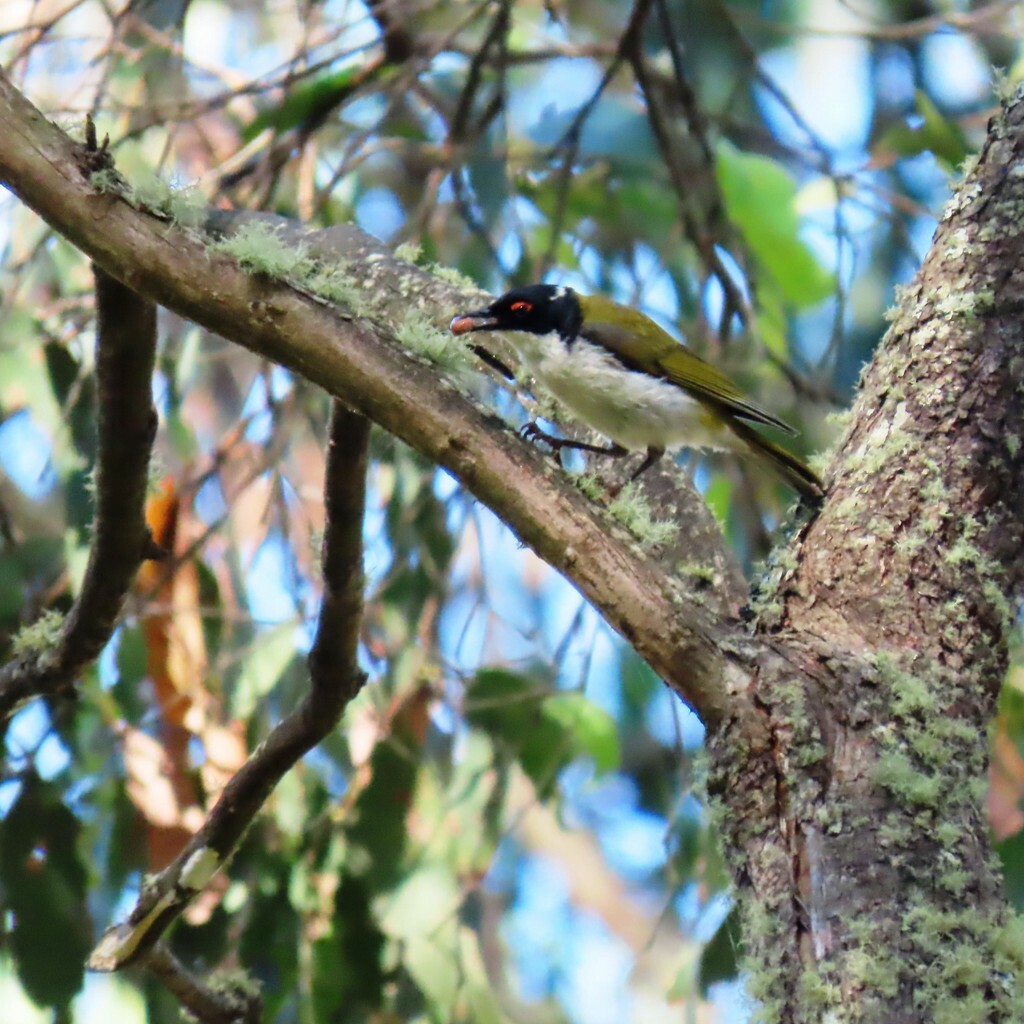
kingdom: Animalia
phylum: Chordata
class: Aves
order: Passeriformes
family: Meliphagidae
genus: Melithreptus
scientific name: Melithreptus lunatus
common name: White-naped honeyeater
